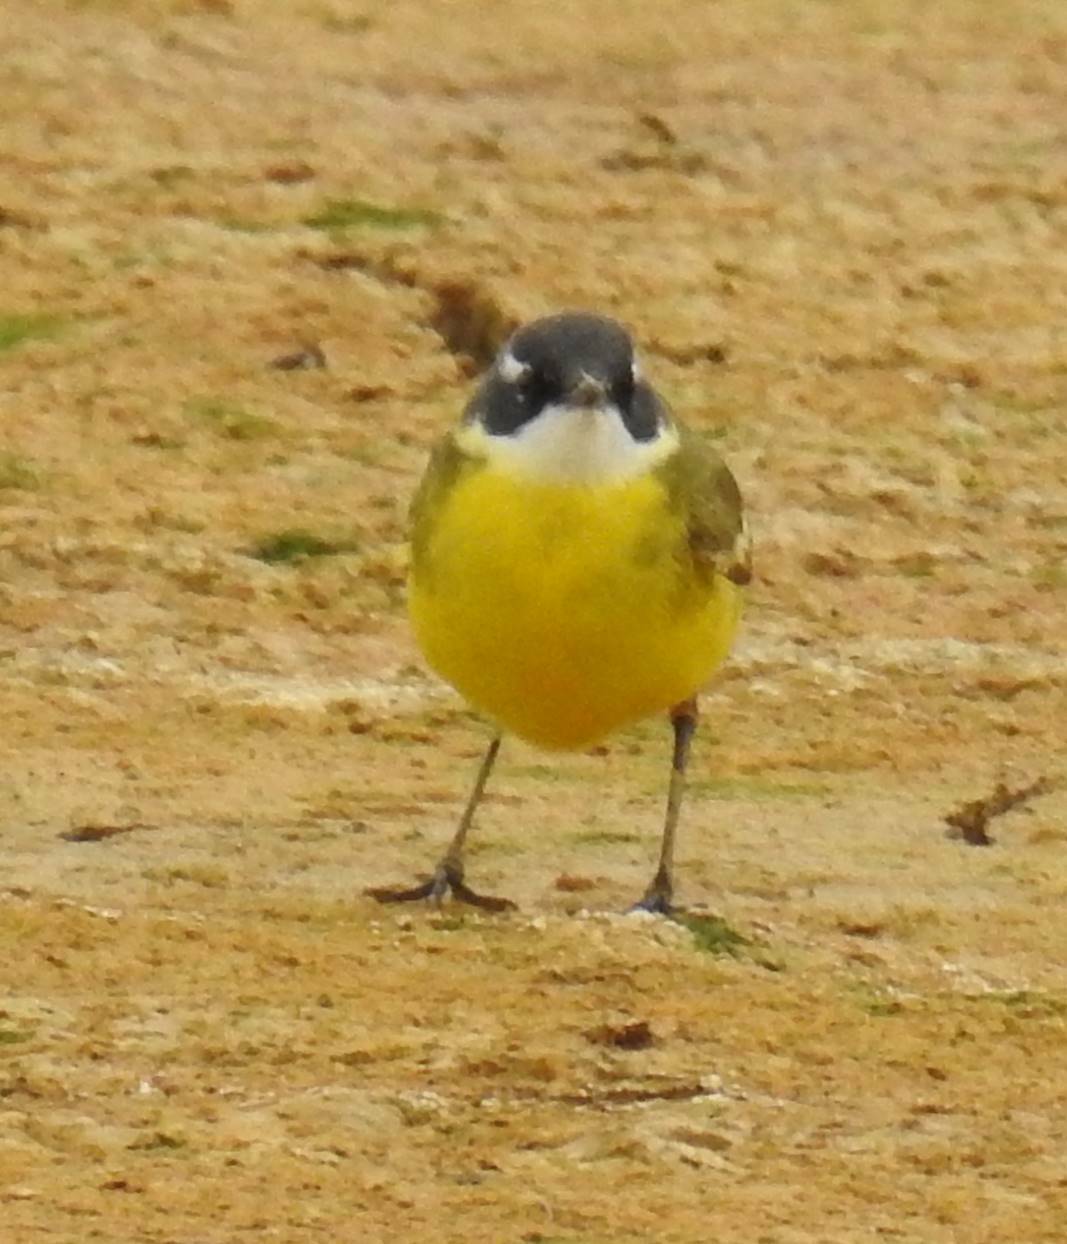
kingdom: Animalia
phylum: Chordata
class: Aves
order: Passeriformes
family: Motacillidae
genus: Motacilla
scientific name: Motacilla flava
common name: Western yellow wagtail
